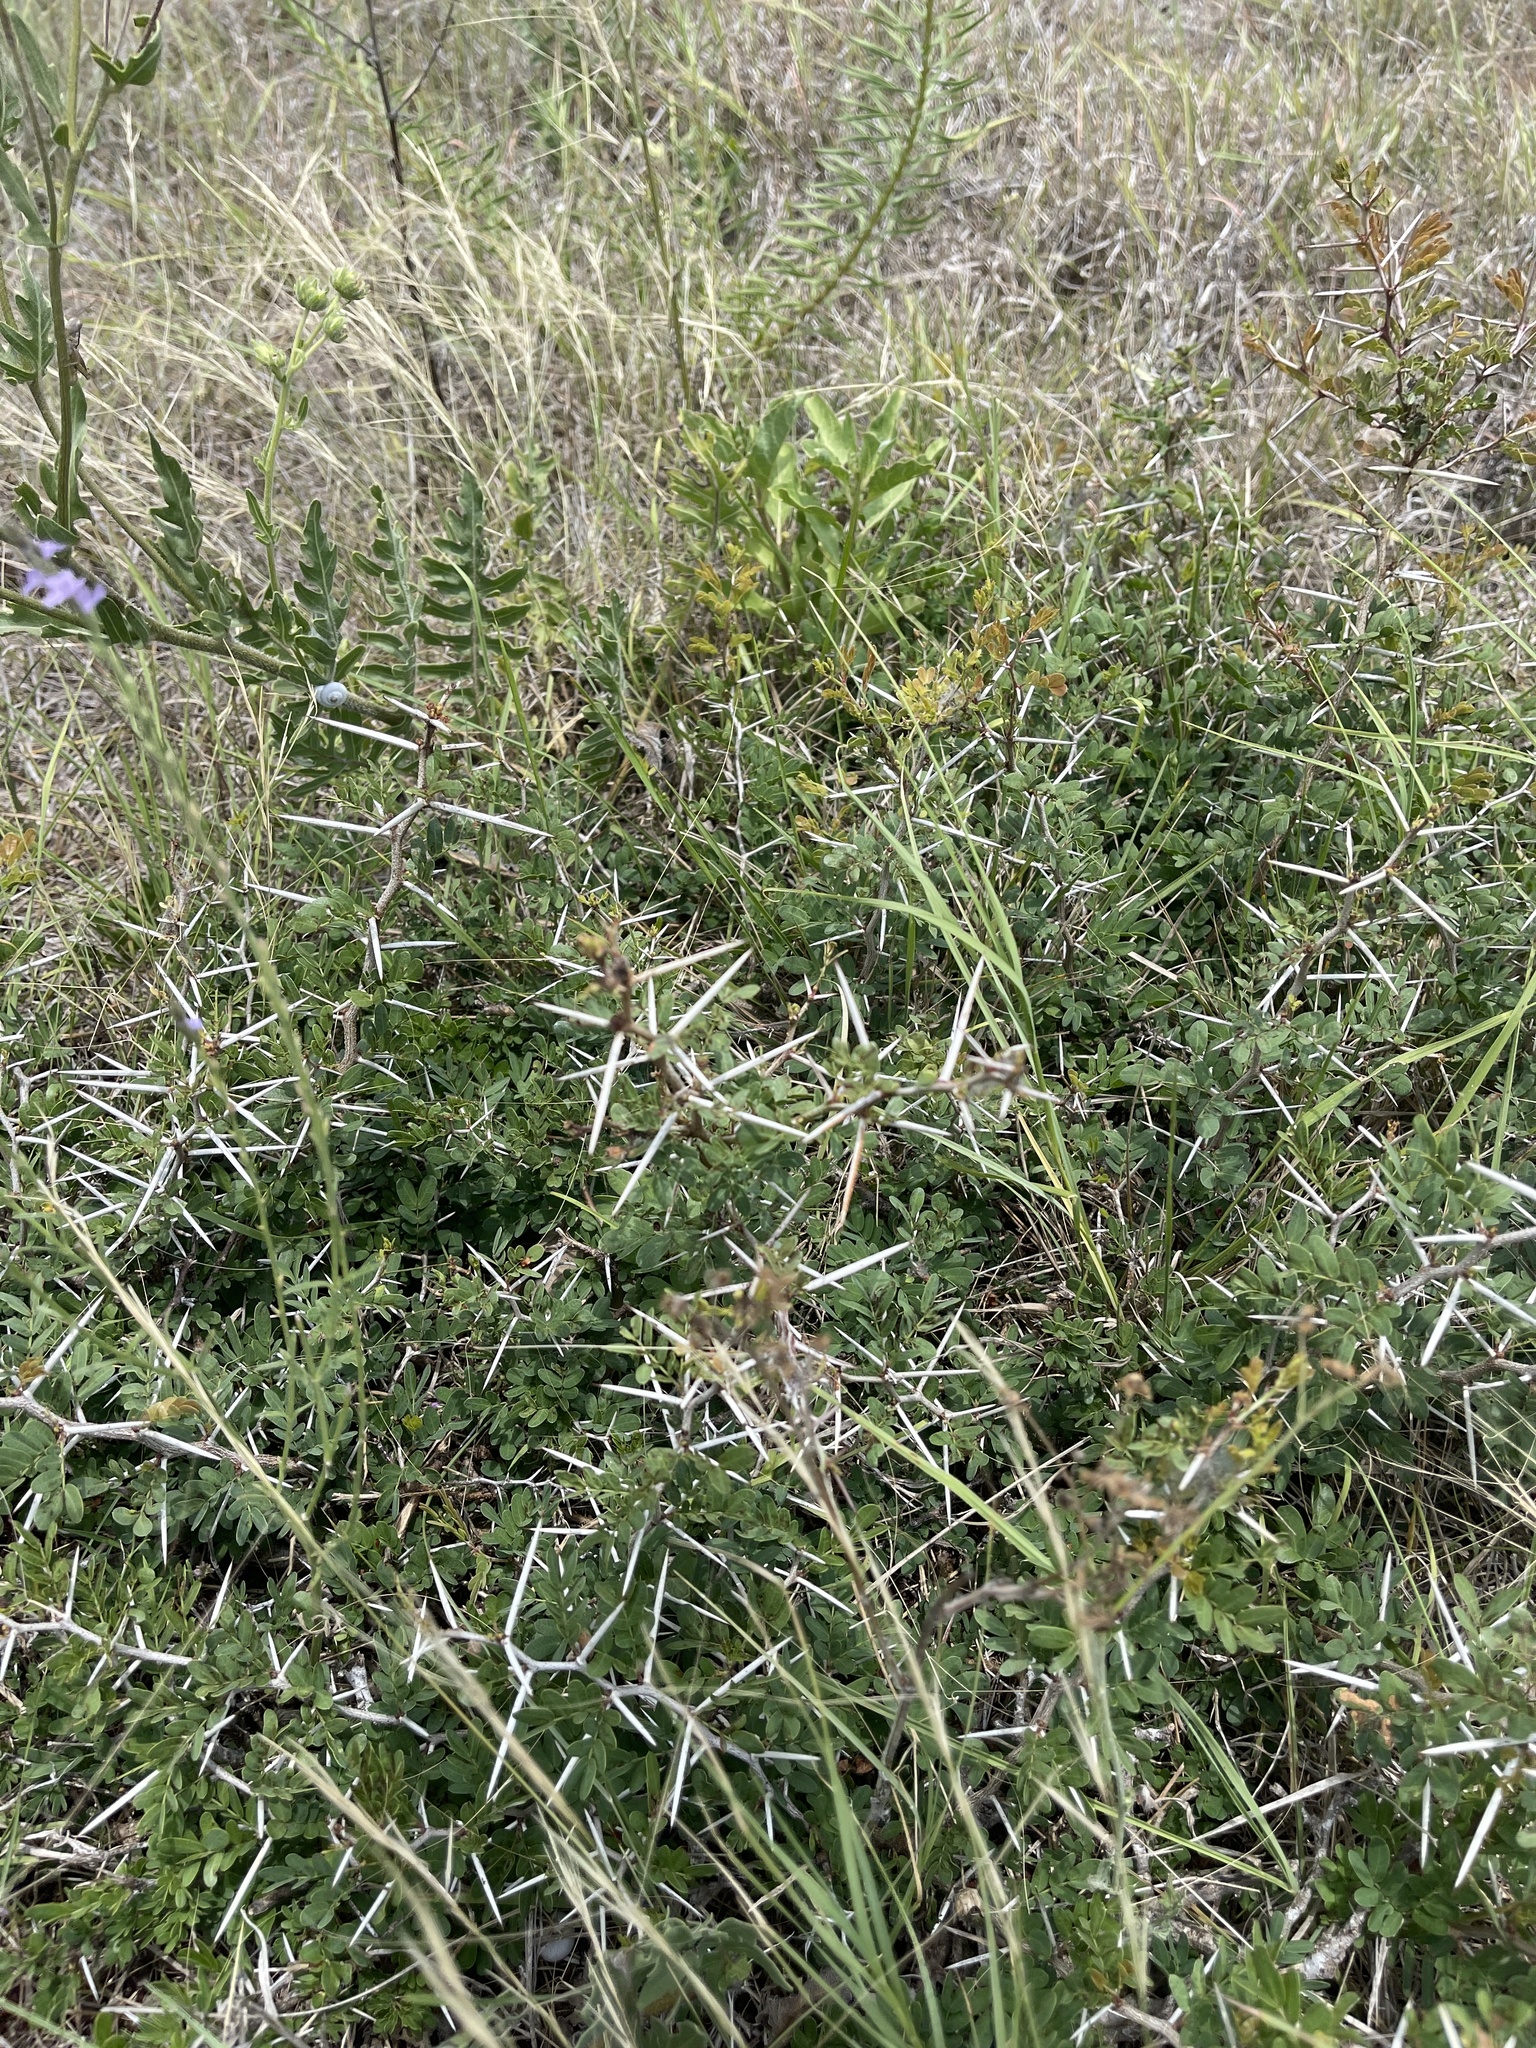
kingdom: Plantae
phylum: Tracheophyta
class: Magnoliopsida
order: Fabales
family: Fabaceae
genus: Vachellia
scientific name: Vachellia rigidula
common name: Blackbrush
